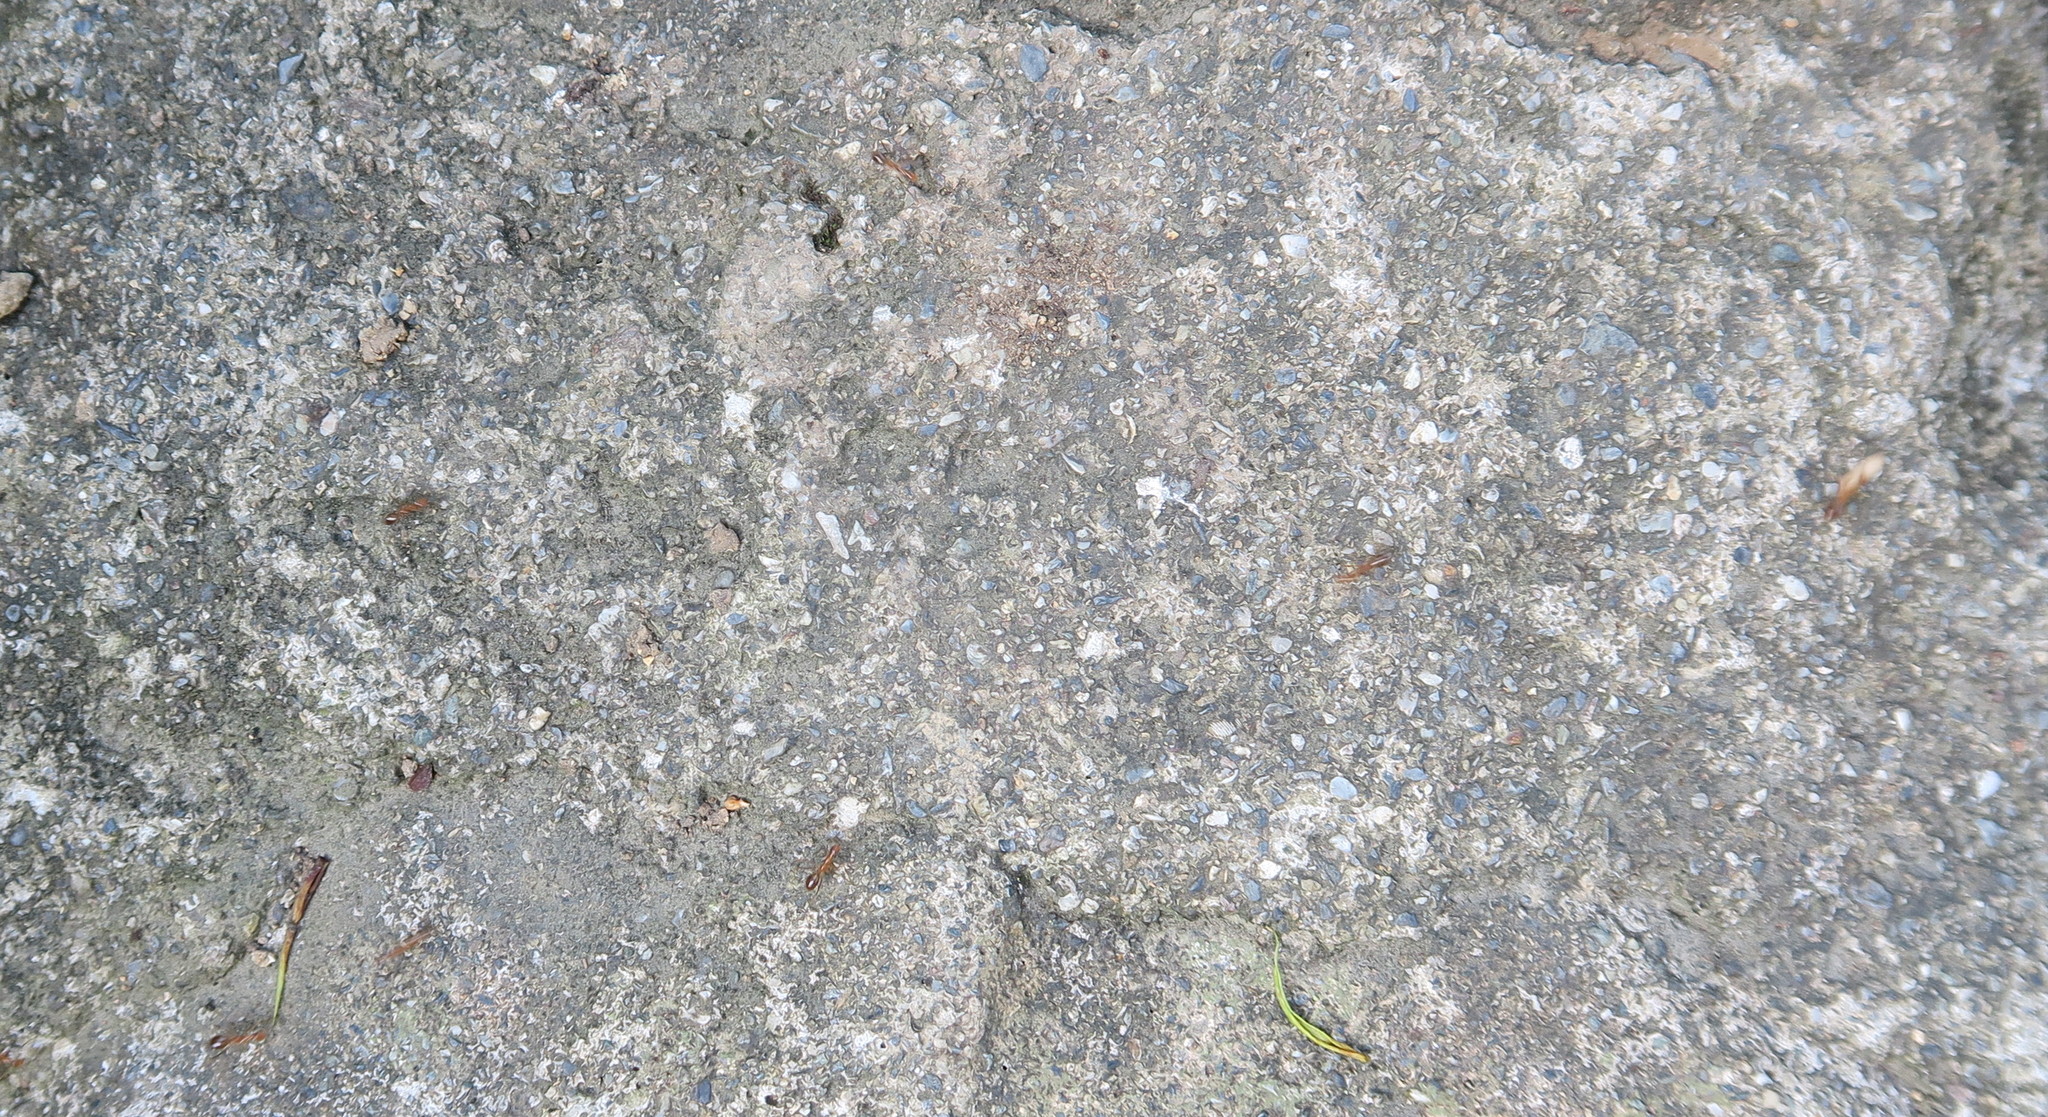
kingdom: Animalia
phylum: Arthropoda
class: Insecta
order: Hymenoptera
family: Formicidae
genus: Anoplolepis
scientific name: Anoplolepis gracilipes
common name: Ant
